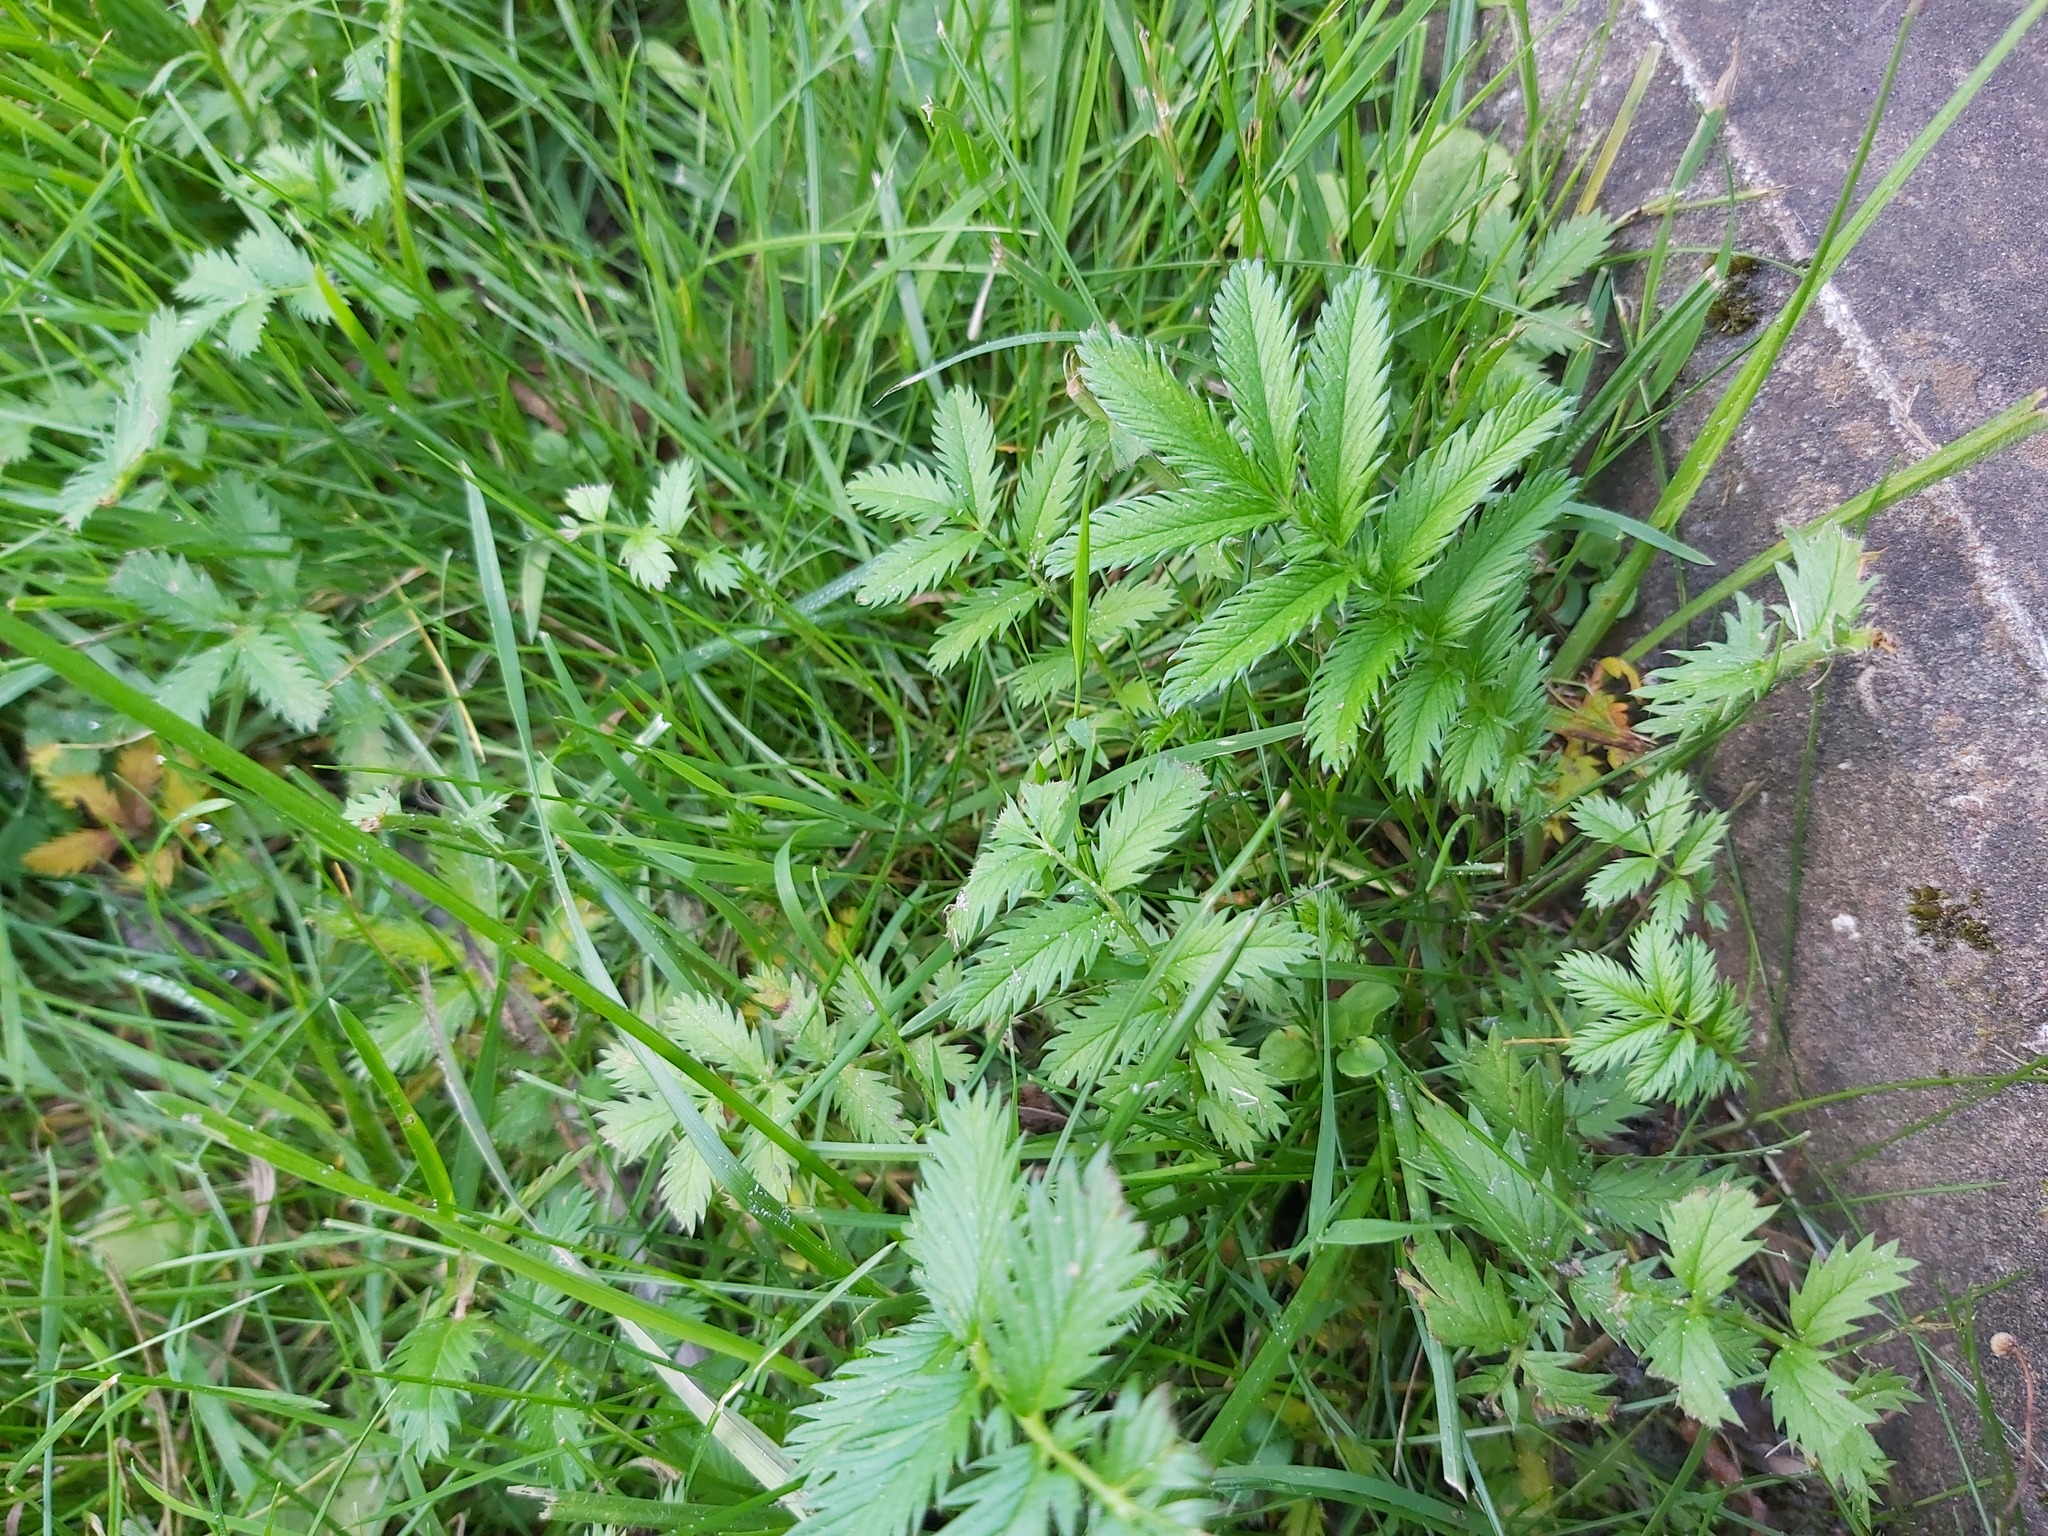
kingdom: Plantae
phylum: Tracheophyta
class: Magnoliopsida
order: Rosales
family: Rosaceae
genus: Argentina
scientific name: Argentina anserina
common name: Common silverweed
